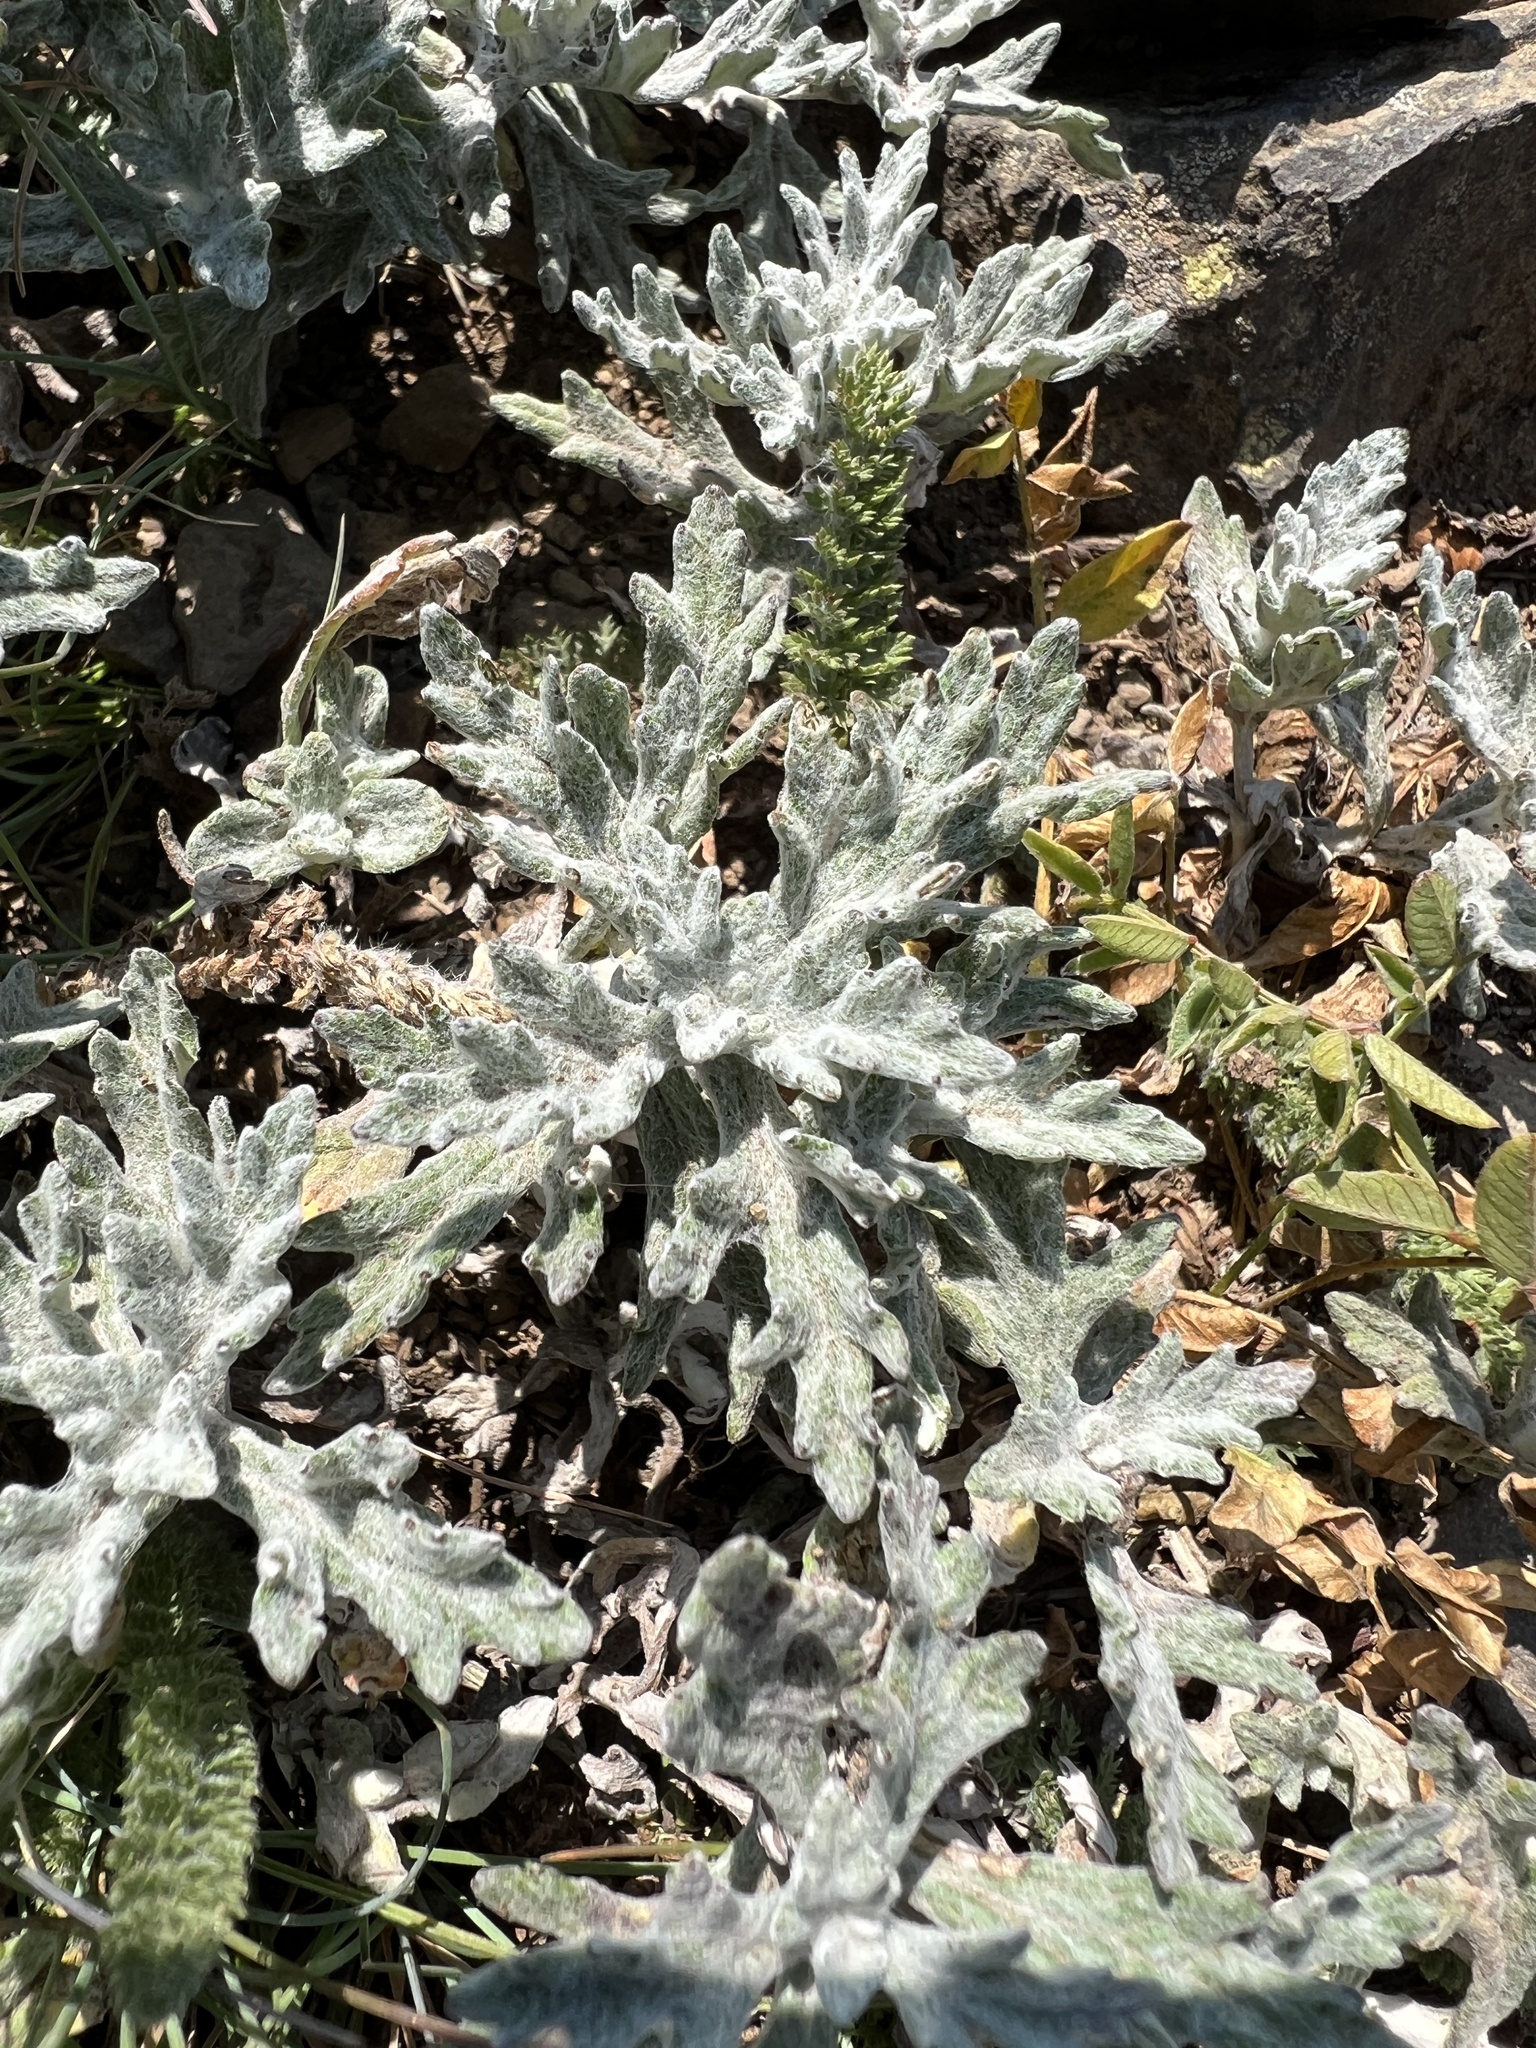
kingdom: Plantae
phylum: Tracheophyta
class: Magnoliopsida
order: Asterales
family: Asteraceae
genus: Eriophyllum
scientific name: Eriophyllum lanatum
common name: Common woolly-sunflower
